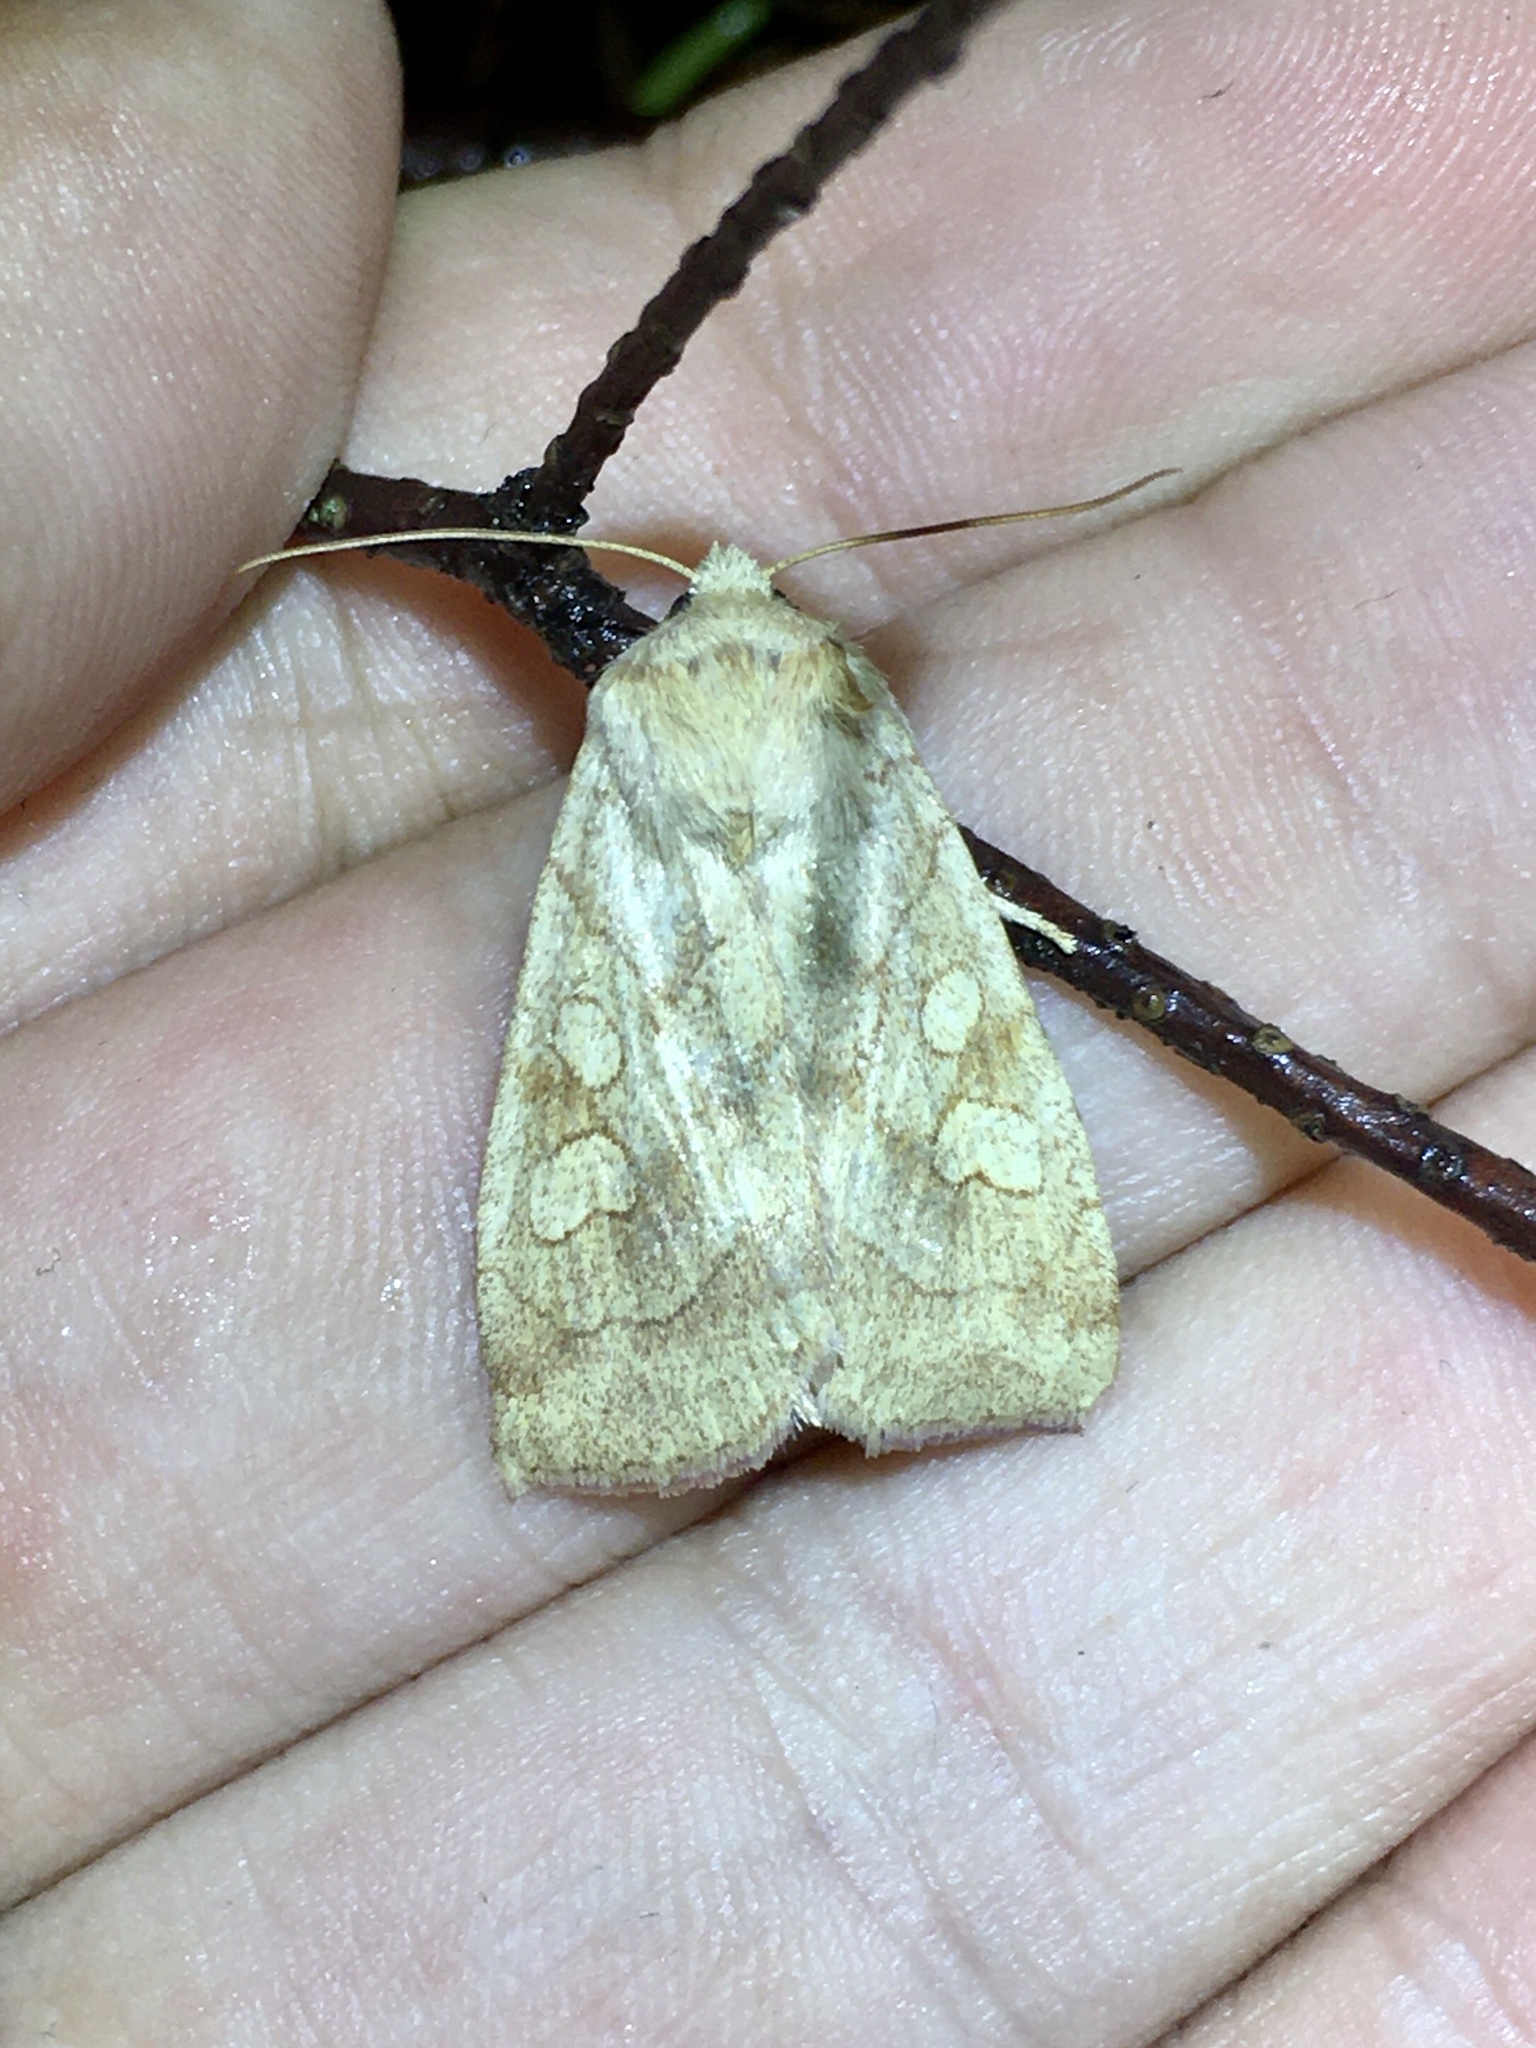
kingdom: Animalia
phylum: Arthropoda
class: Insecta
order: Lepidoptera
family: Noctuidae
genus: Enargia
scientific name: Enargia decolor
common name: Aspen twoleaf tier moth
